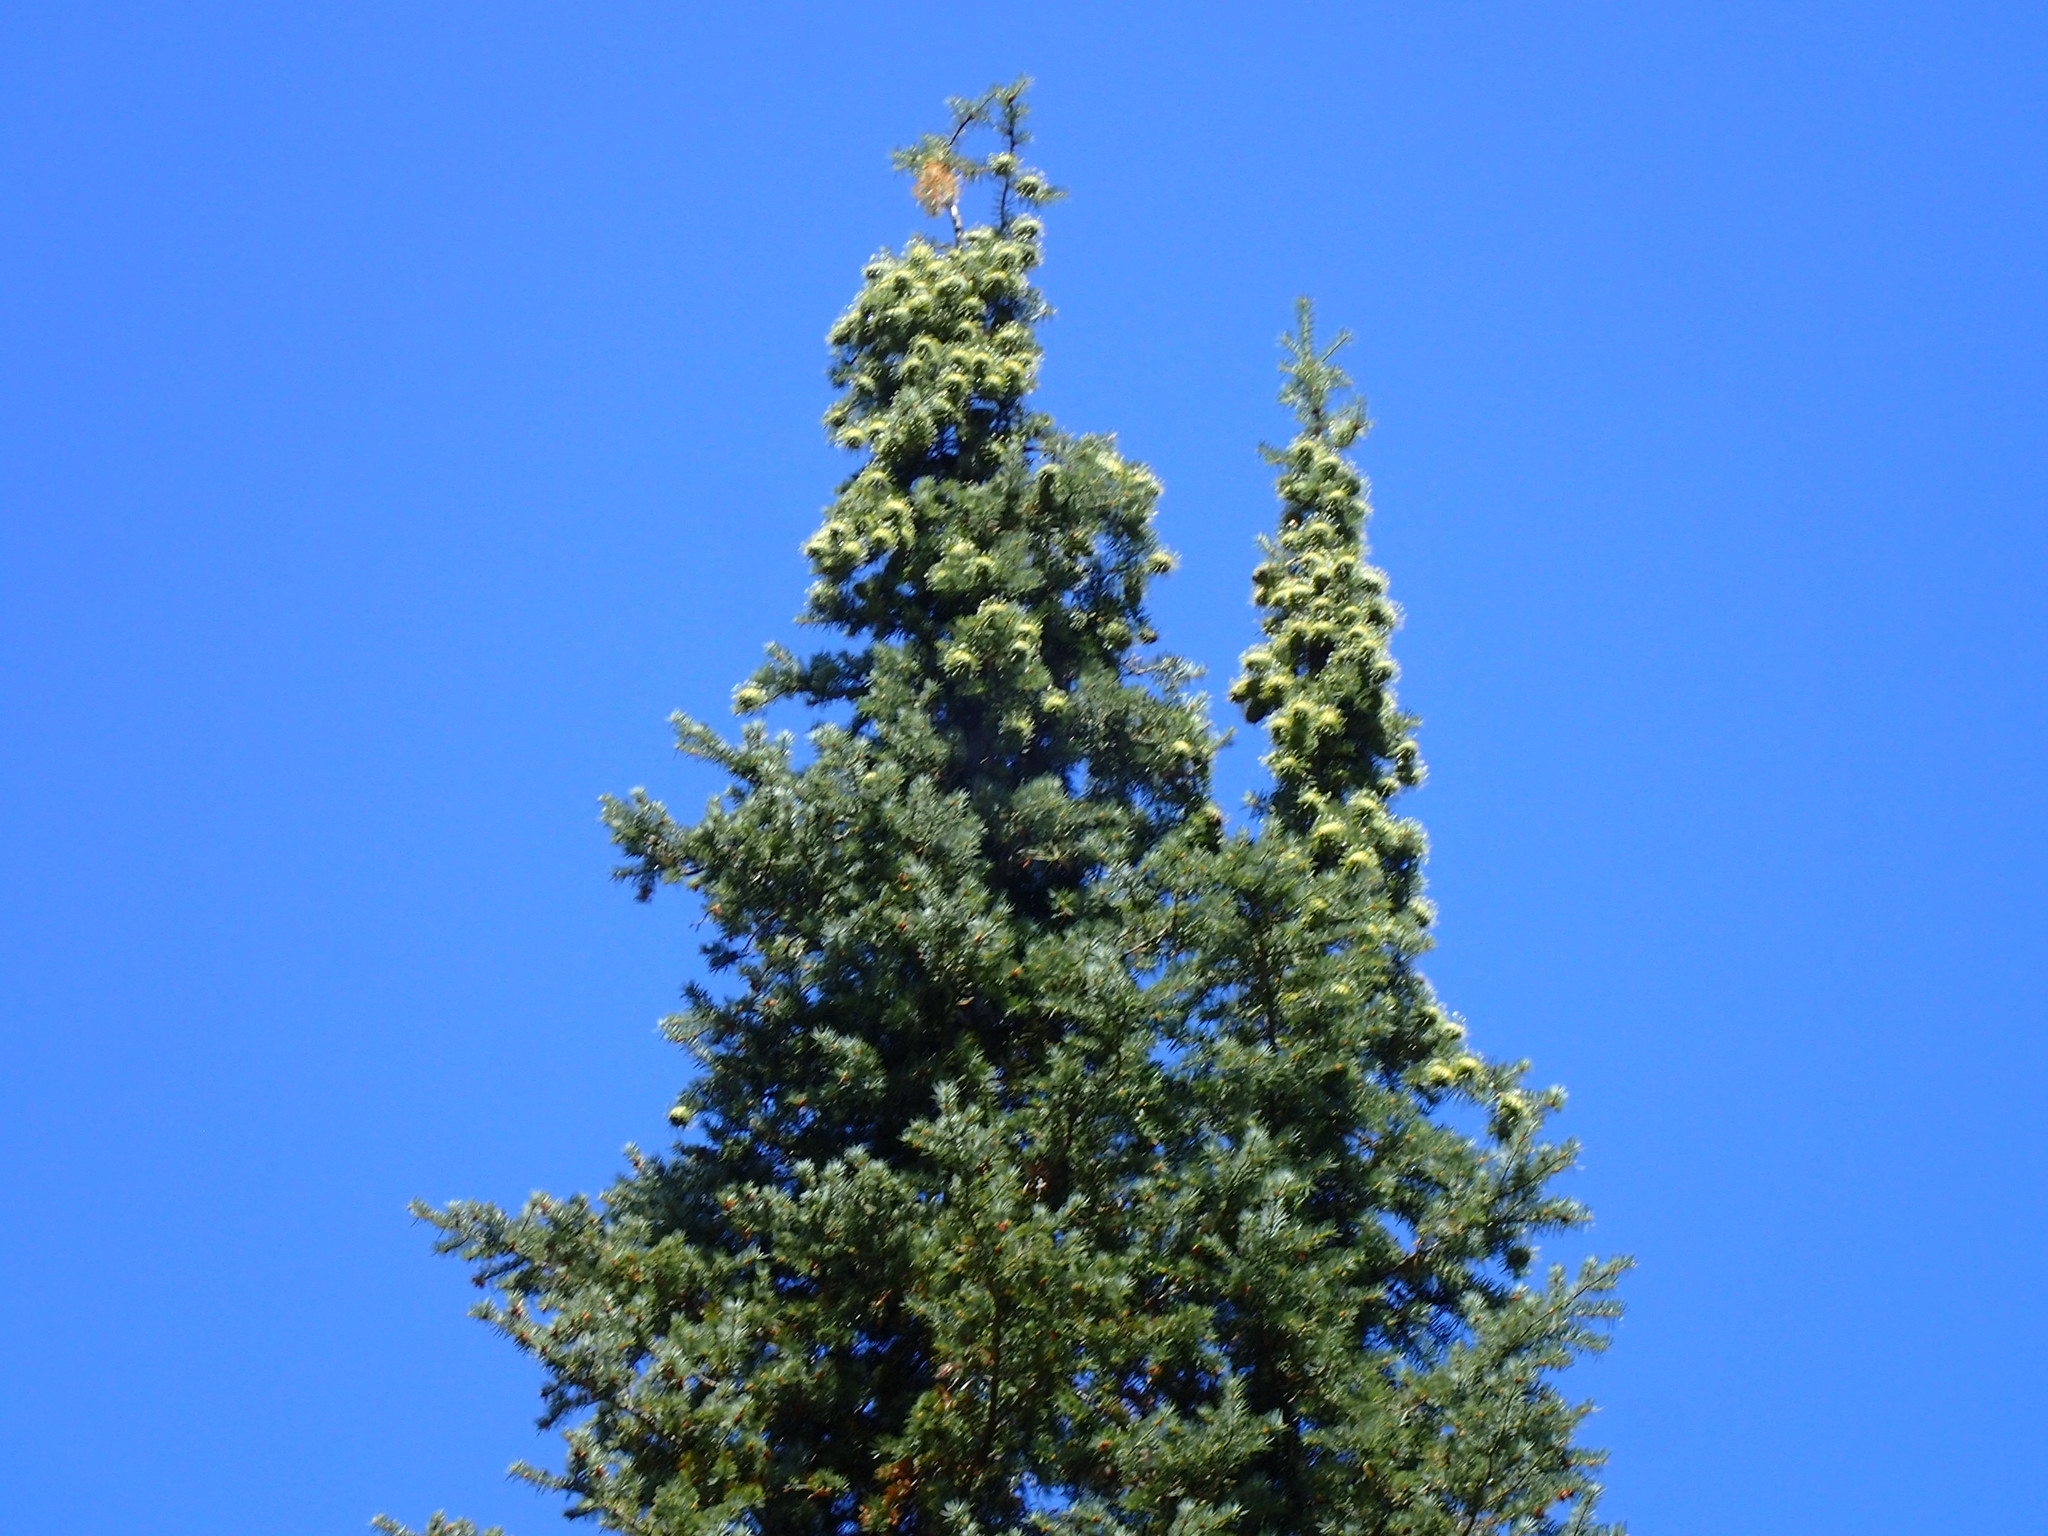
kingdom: Plantae
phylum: Tracheophyta
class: Pinopsida
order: Pinales
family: Pinaceae
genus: Abies
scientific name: Abies bracteata
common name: Bristlecone fir
